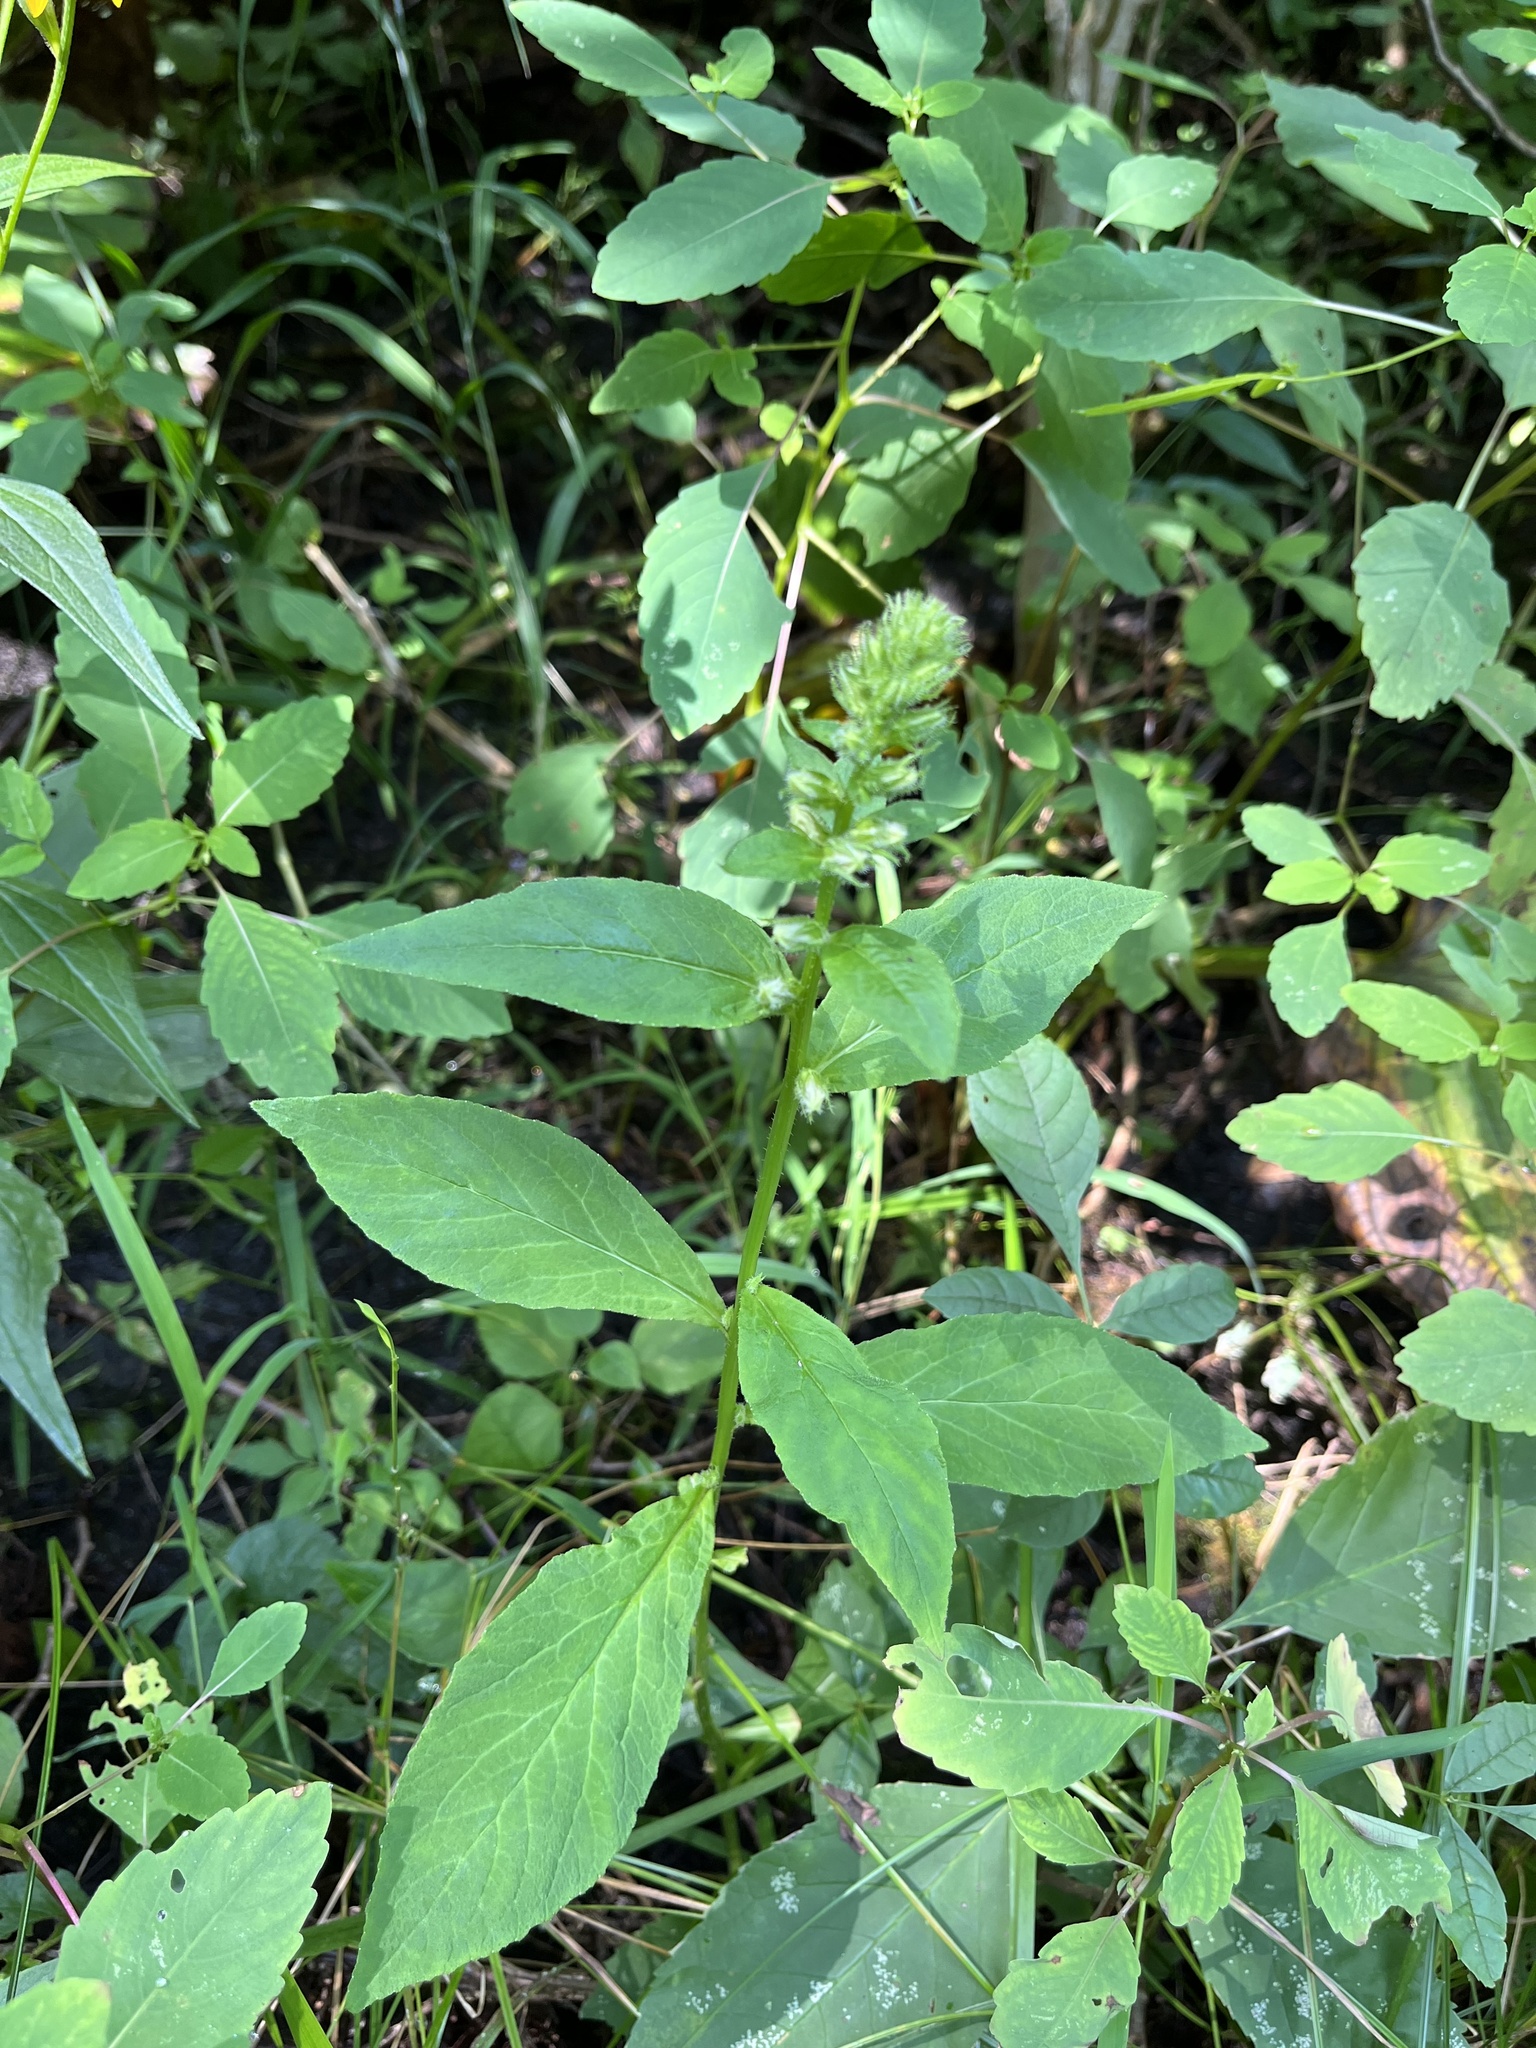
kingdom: Plantae
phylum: Tracheophyta
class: Magnoliopsida
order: Asterales
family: Campanulaceae
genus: Lobelia
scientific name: Lobelia siphilitica
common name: Great lobelia
